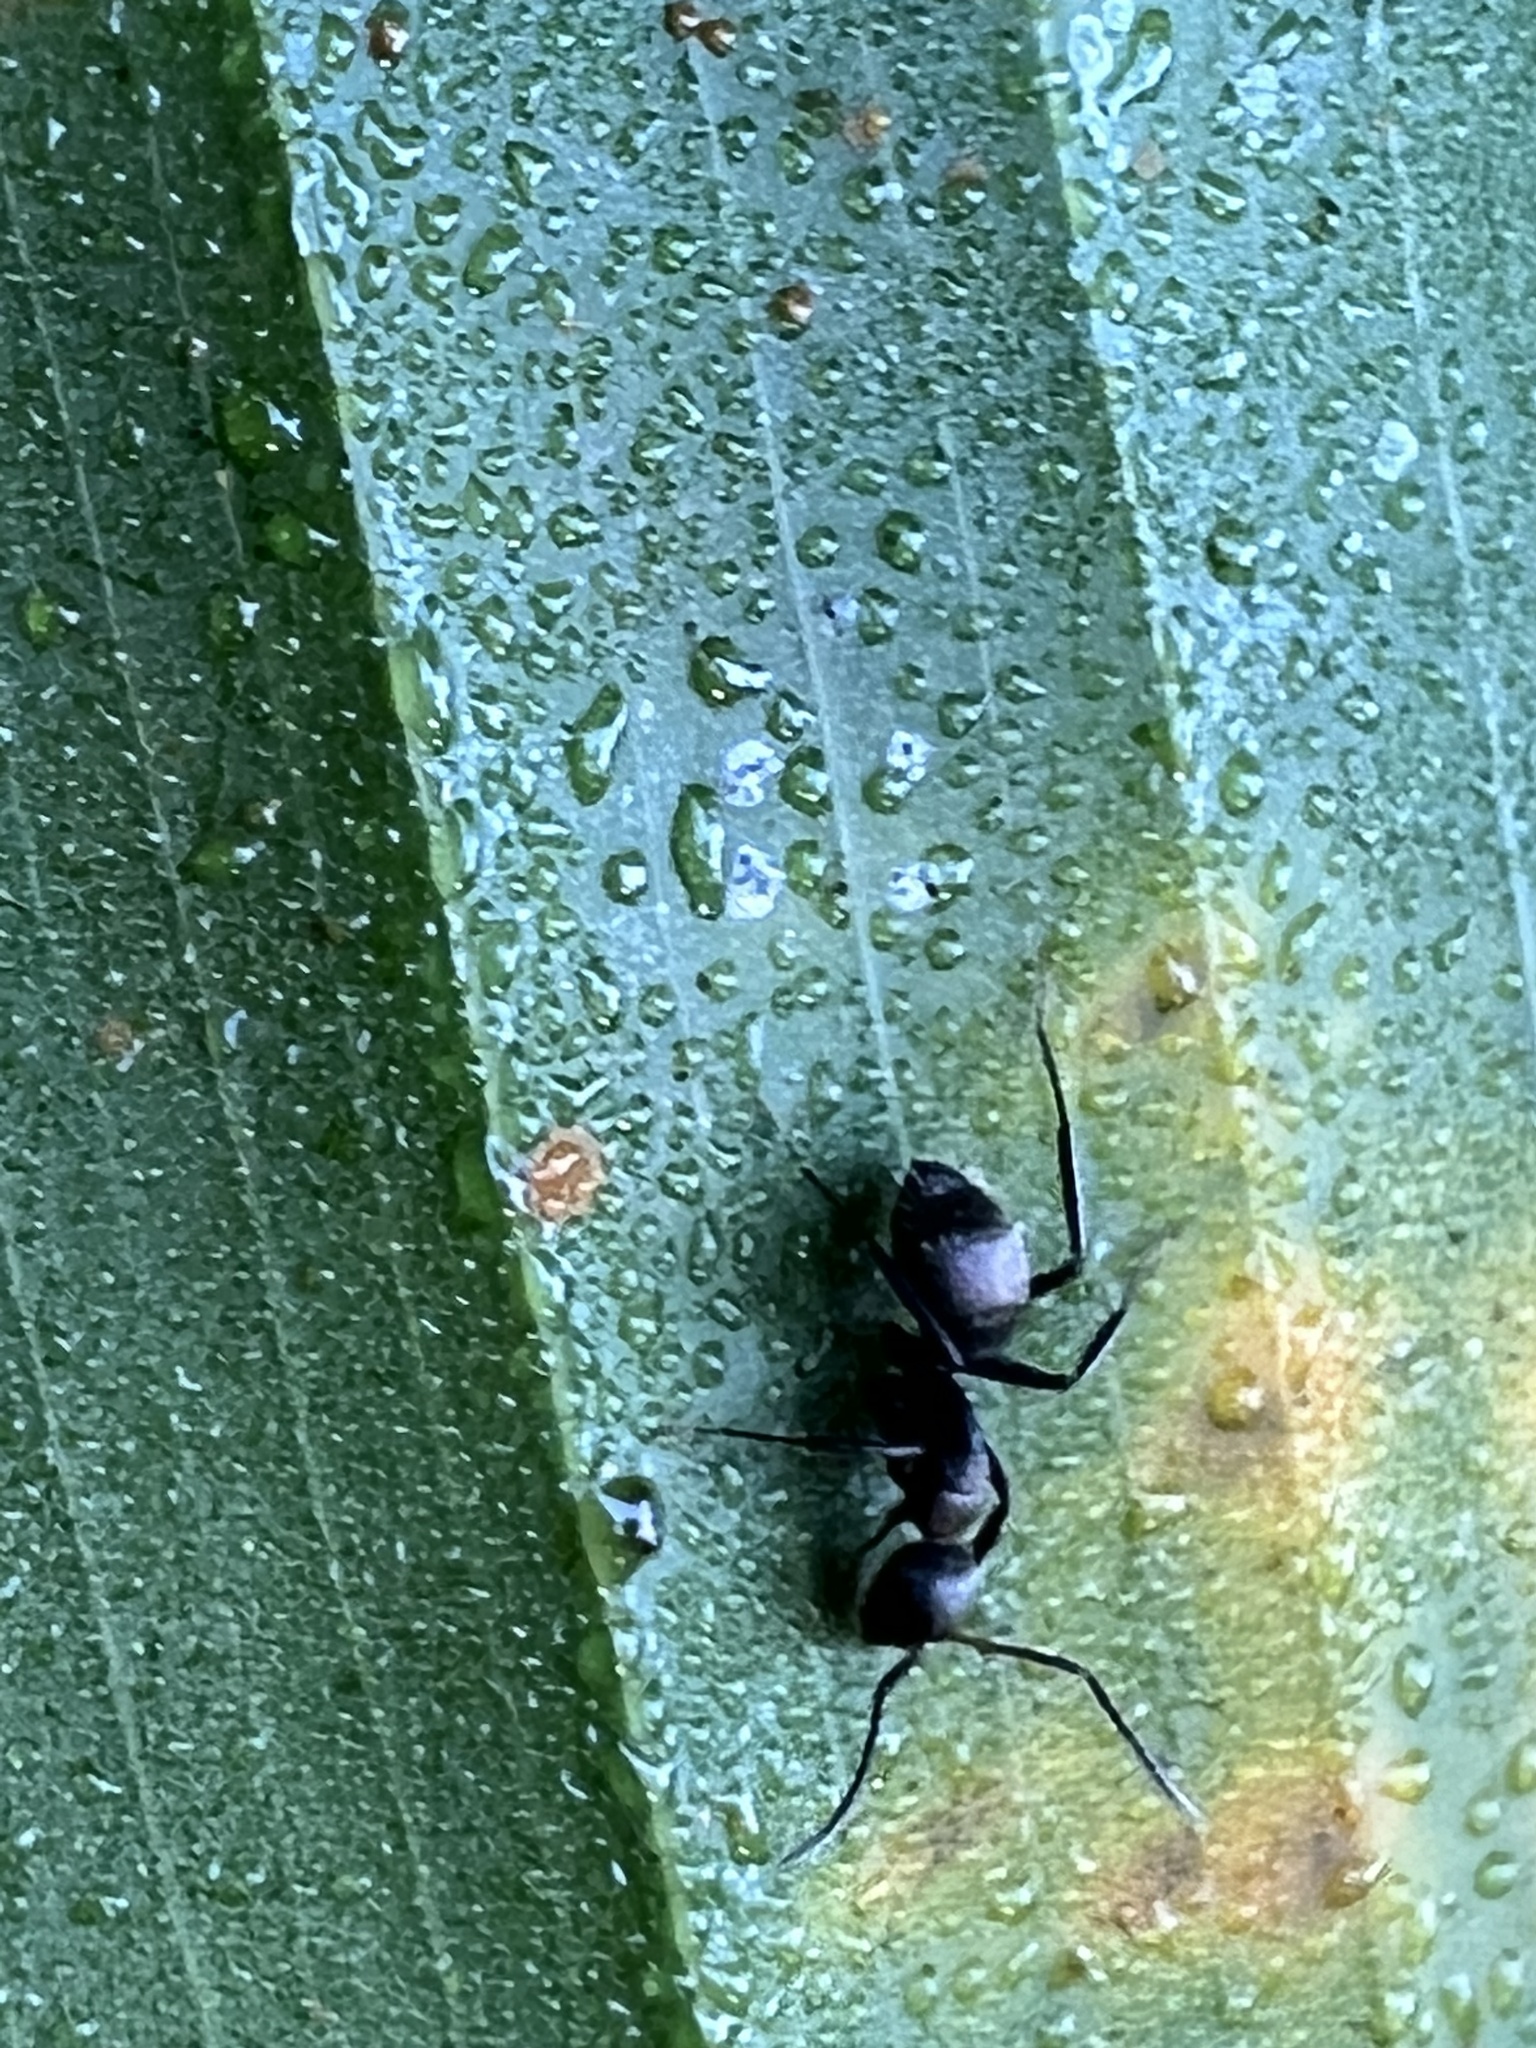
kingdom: Animalia
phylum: Arthropoda
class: Insecta
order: Hymenoptera
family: Formicidae
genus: Camponotus
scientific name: Camponotus novogranadensis
